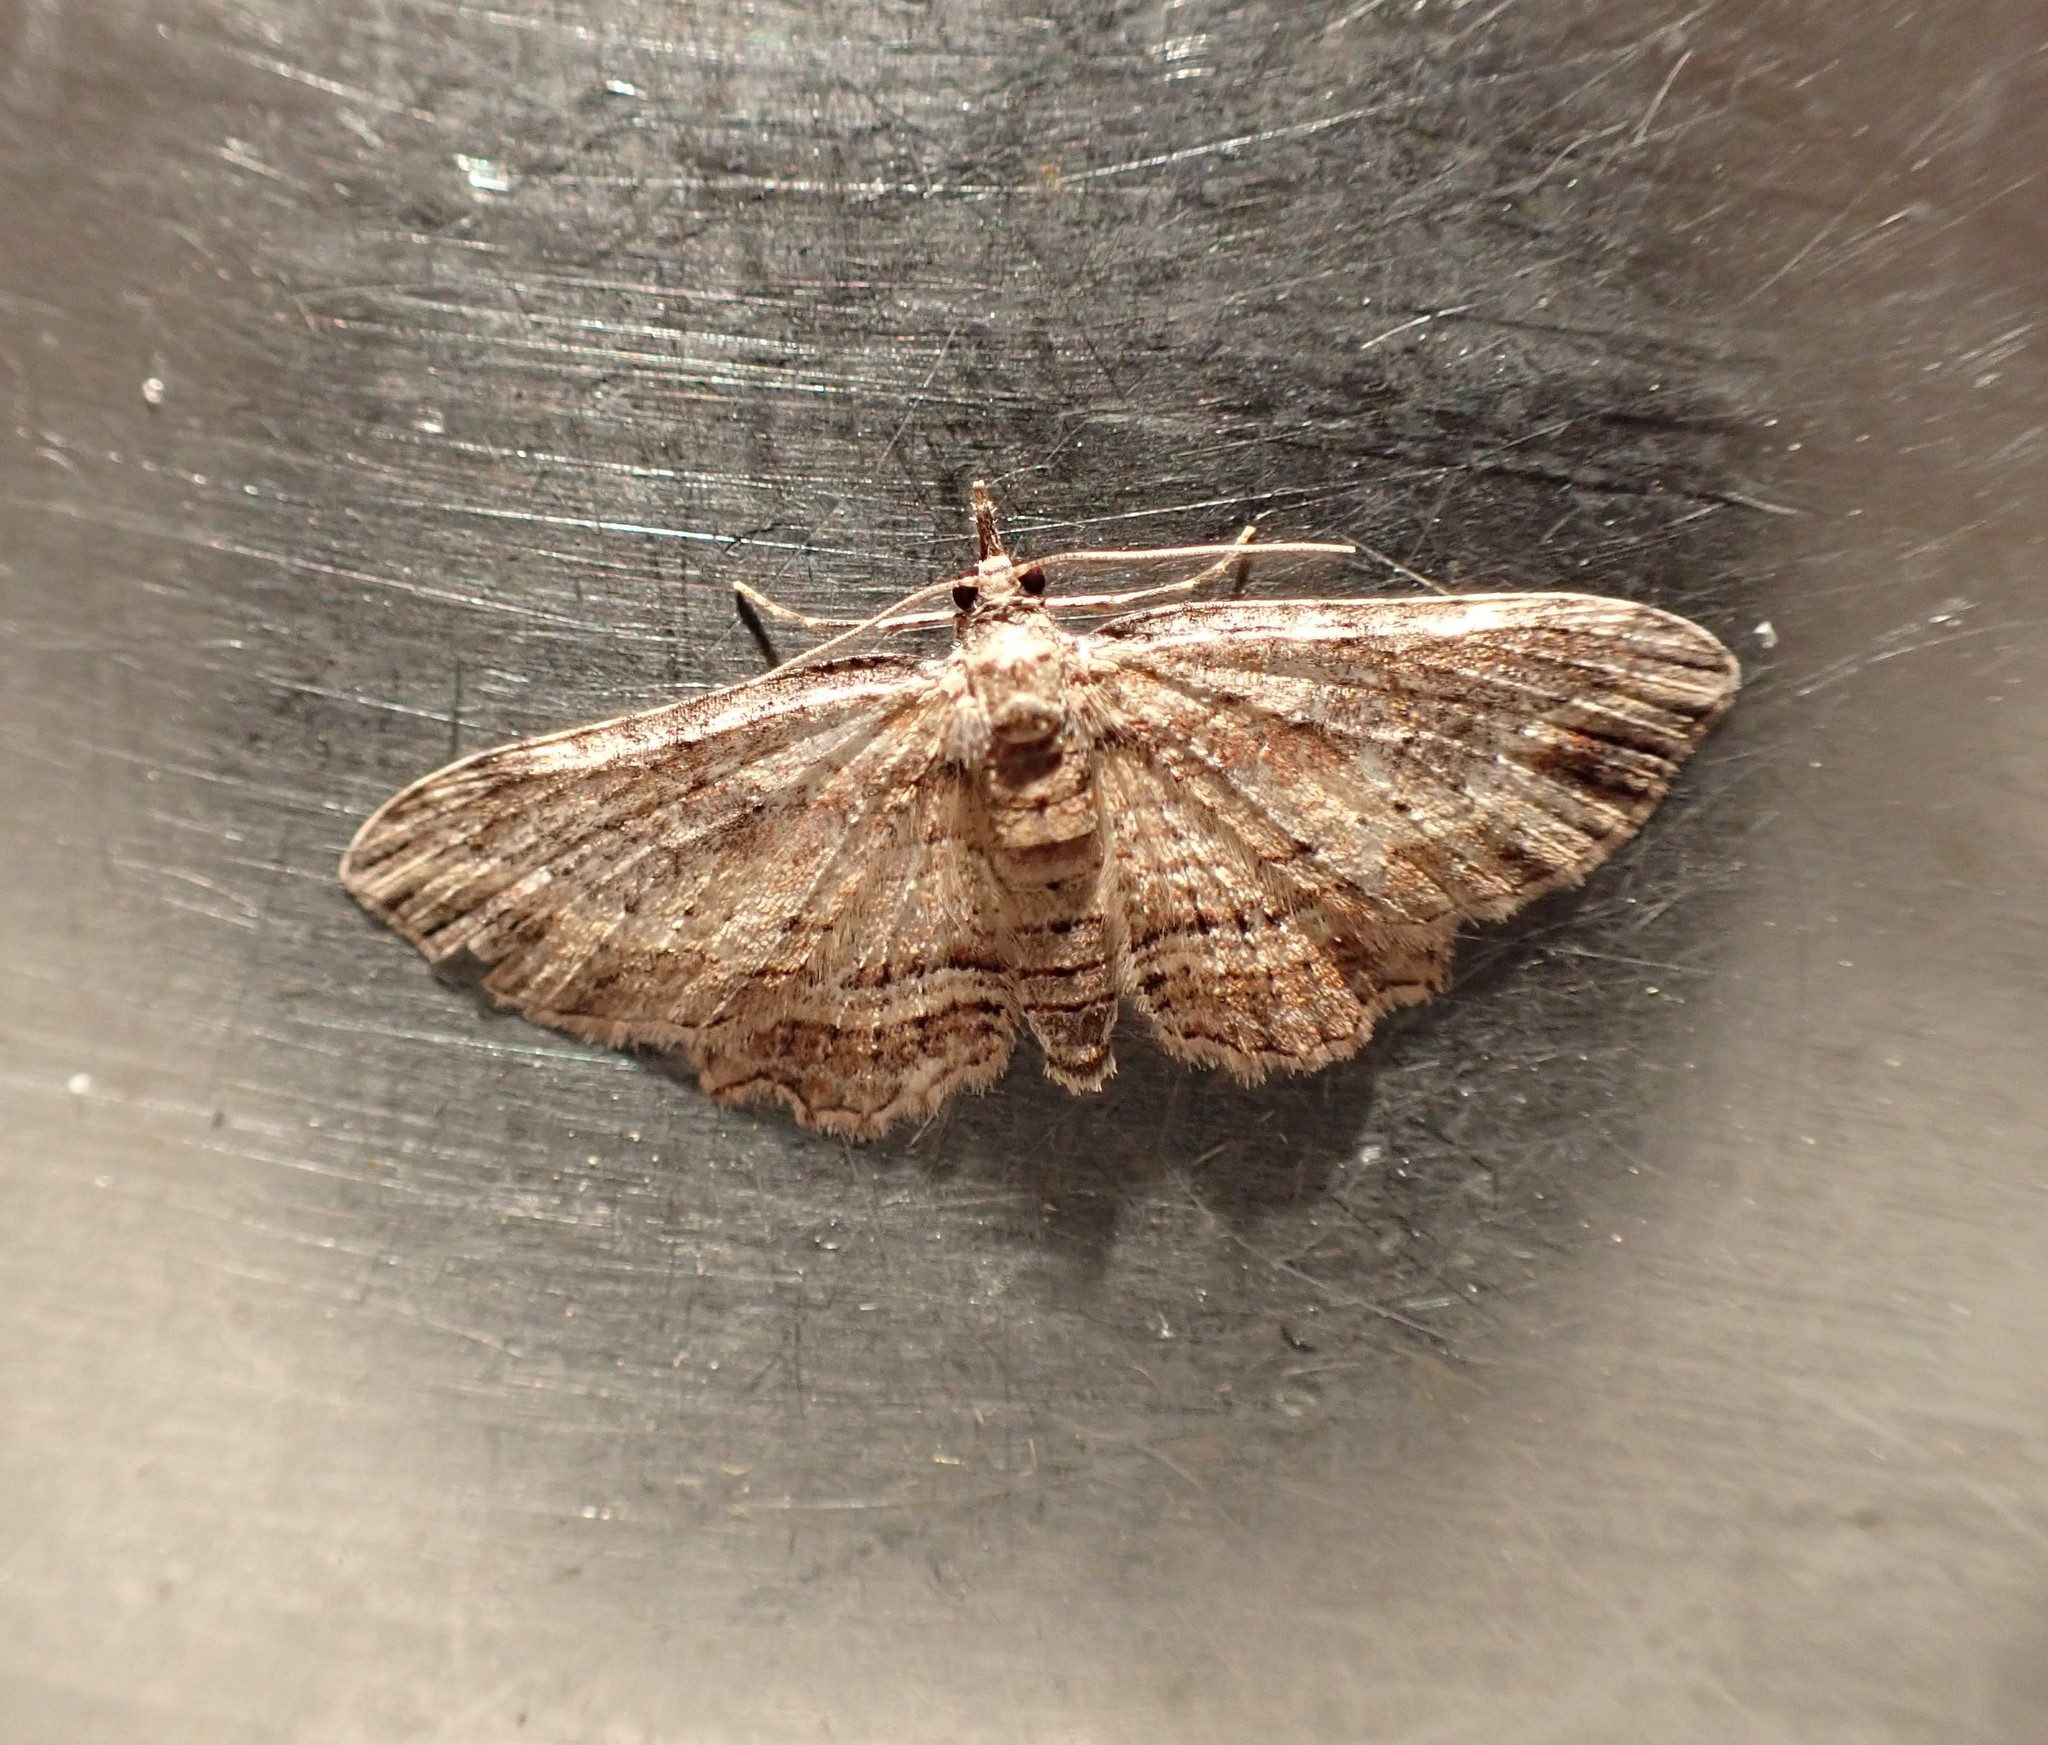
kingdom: Animalia
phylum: Arthropoda
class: Insecta
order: Lepidoptera
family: Geometridae
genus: Chloroclystis
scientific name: Chloroclystis filata
